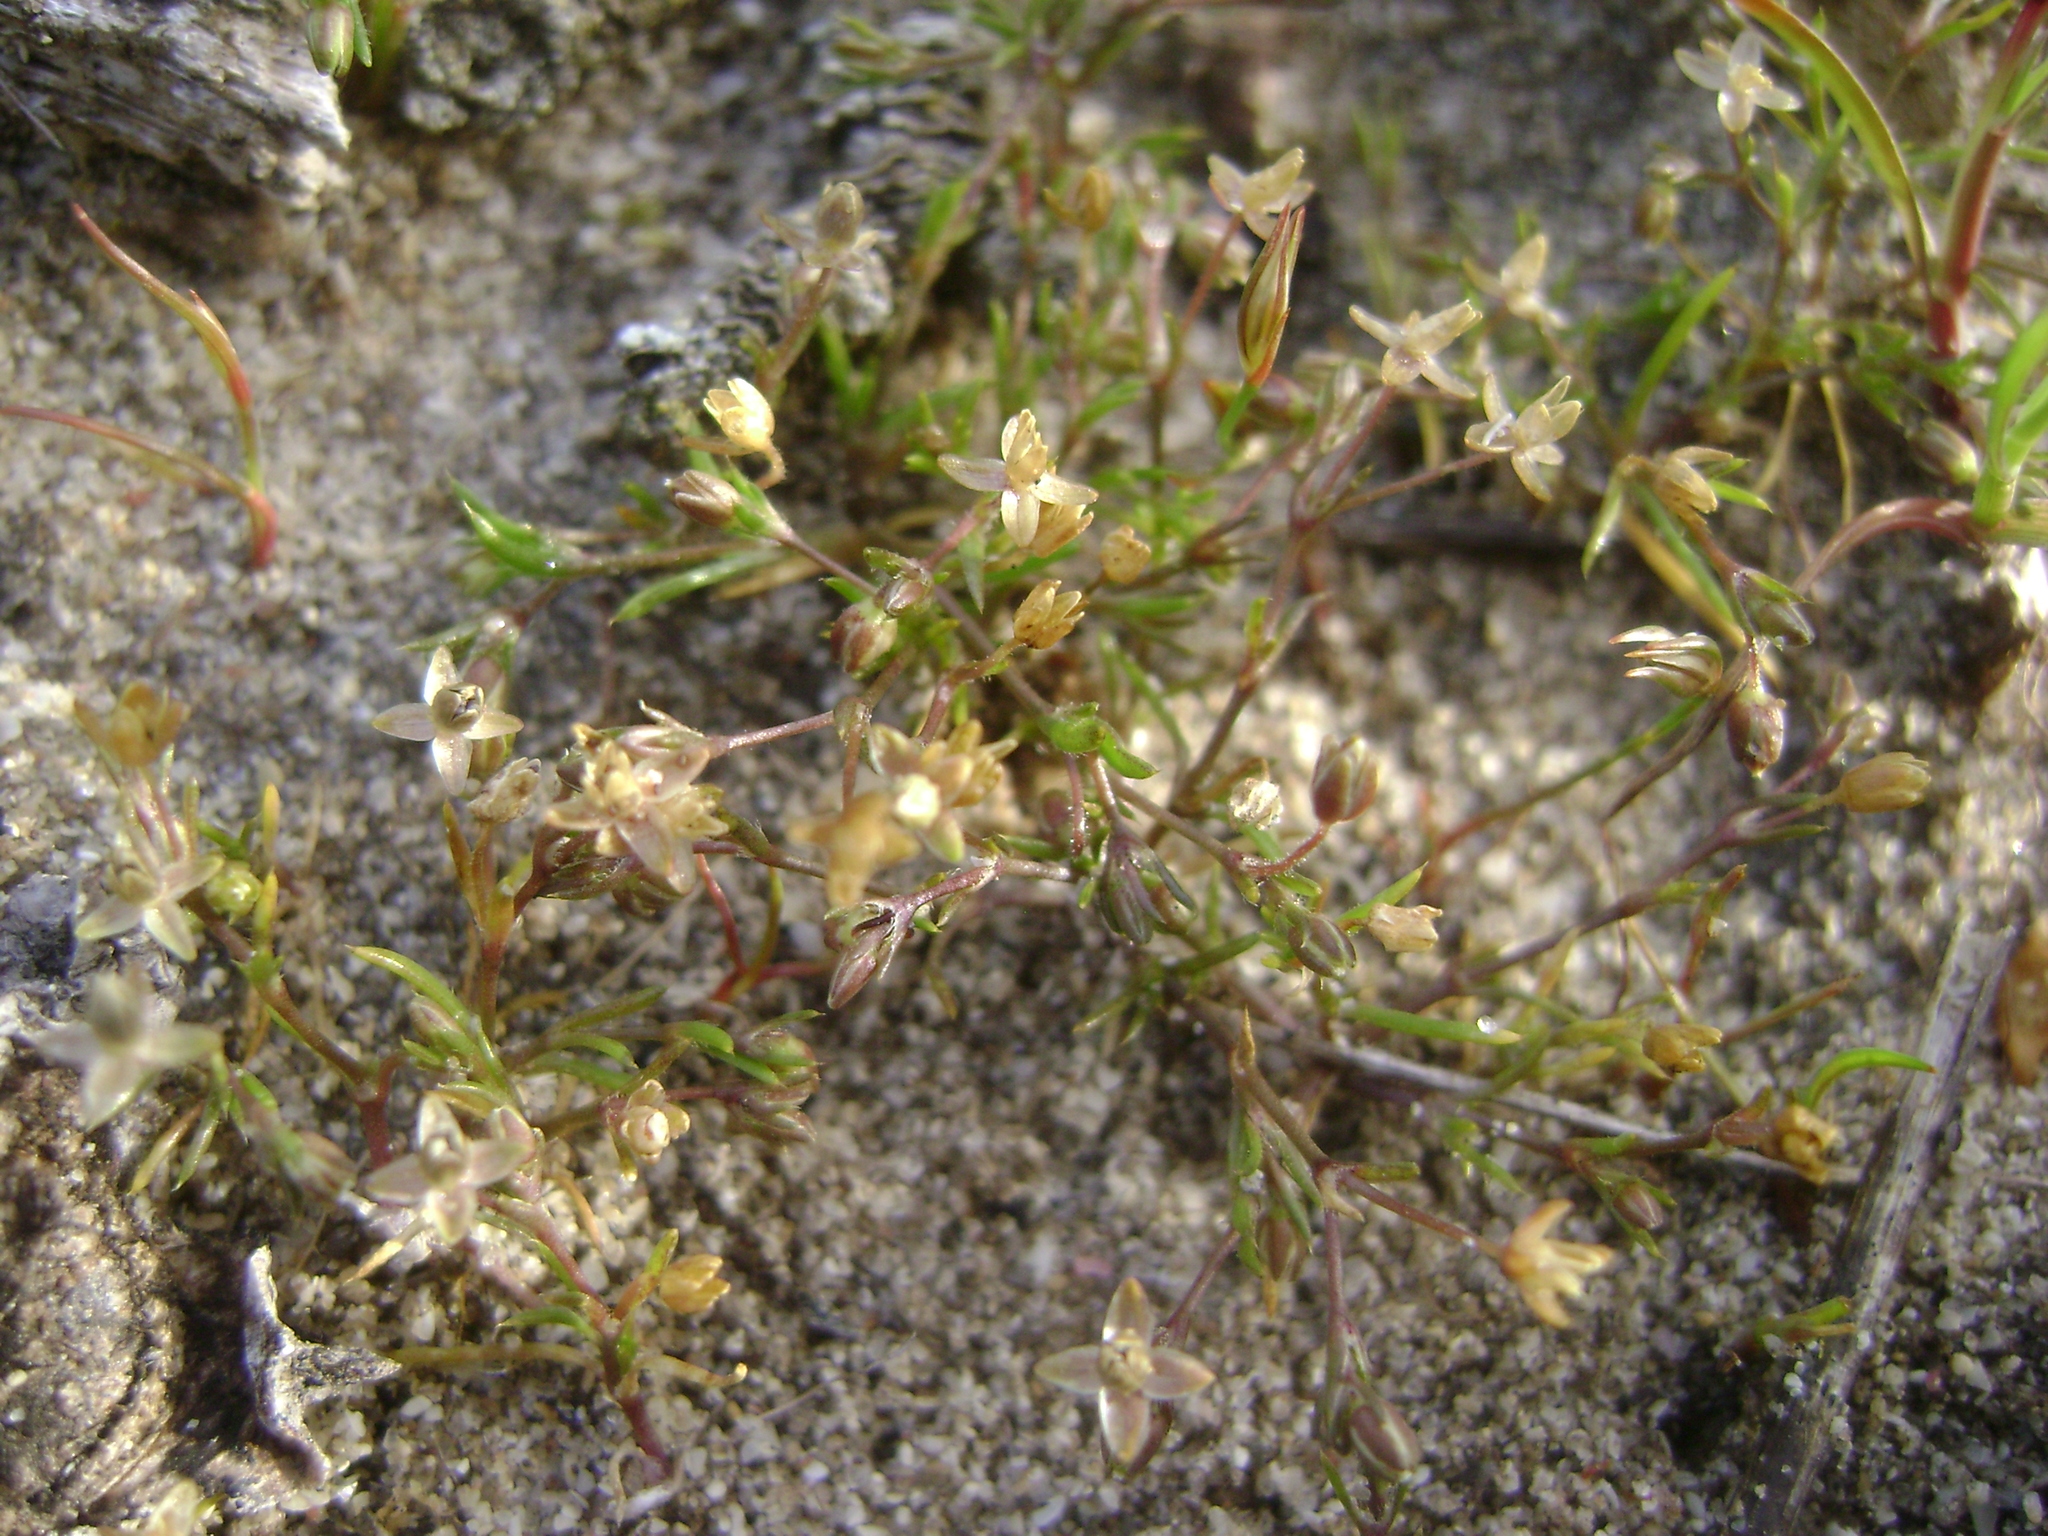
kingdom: Plantae
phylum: Tracheophyta
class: Magnoliopsida
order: Caryophyllales
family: Caryophyllaceae
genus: Sagina
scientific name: Sagina apetala
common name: Annual pearlwort
